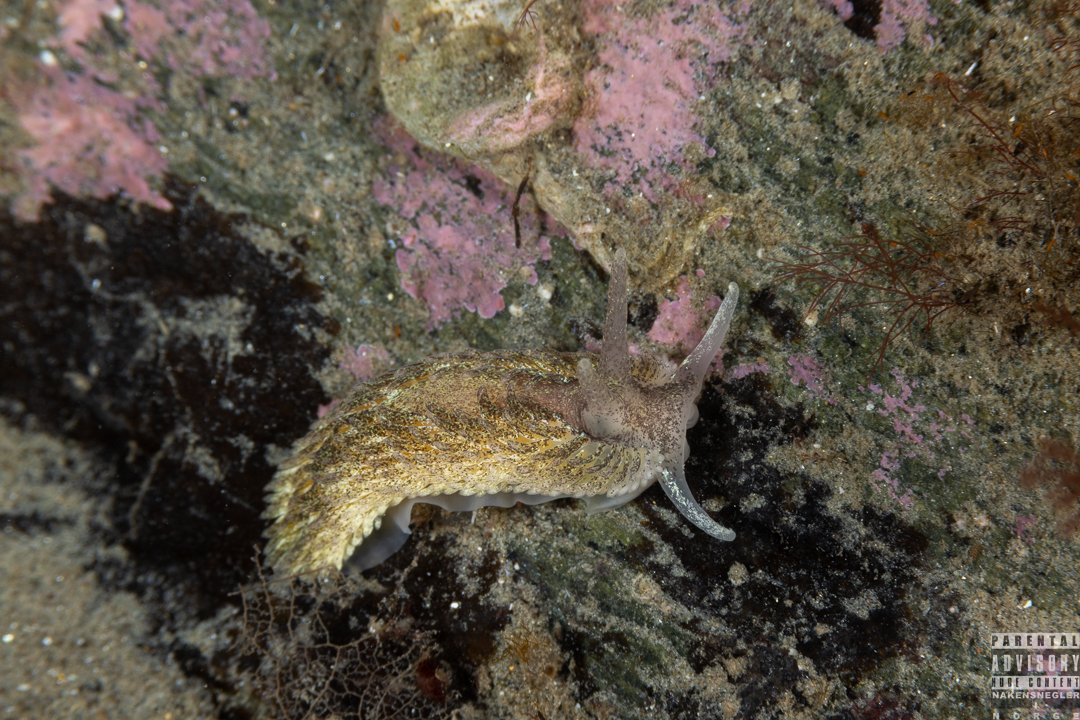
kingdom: Animalia
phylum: Mollusca
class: Gastropoda
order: Nudibranchia
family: Aeolidiidae
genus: Aeolidia
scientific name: Aeolidia papillosa
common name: Common grey sea slug
